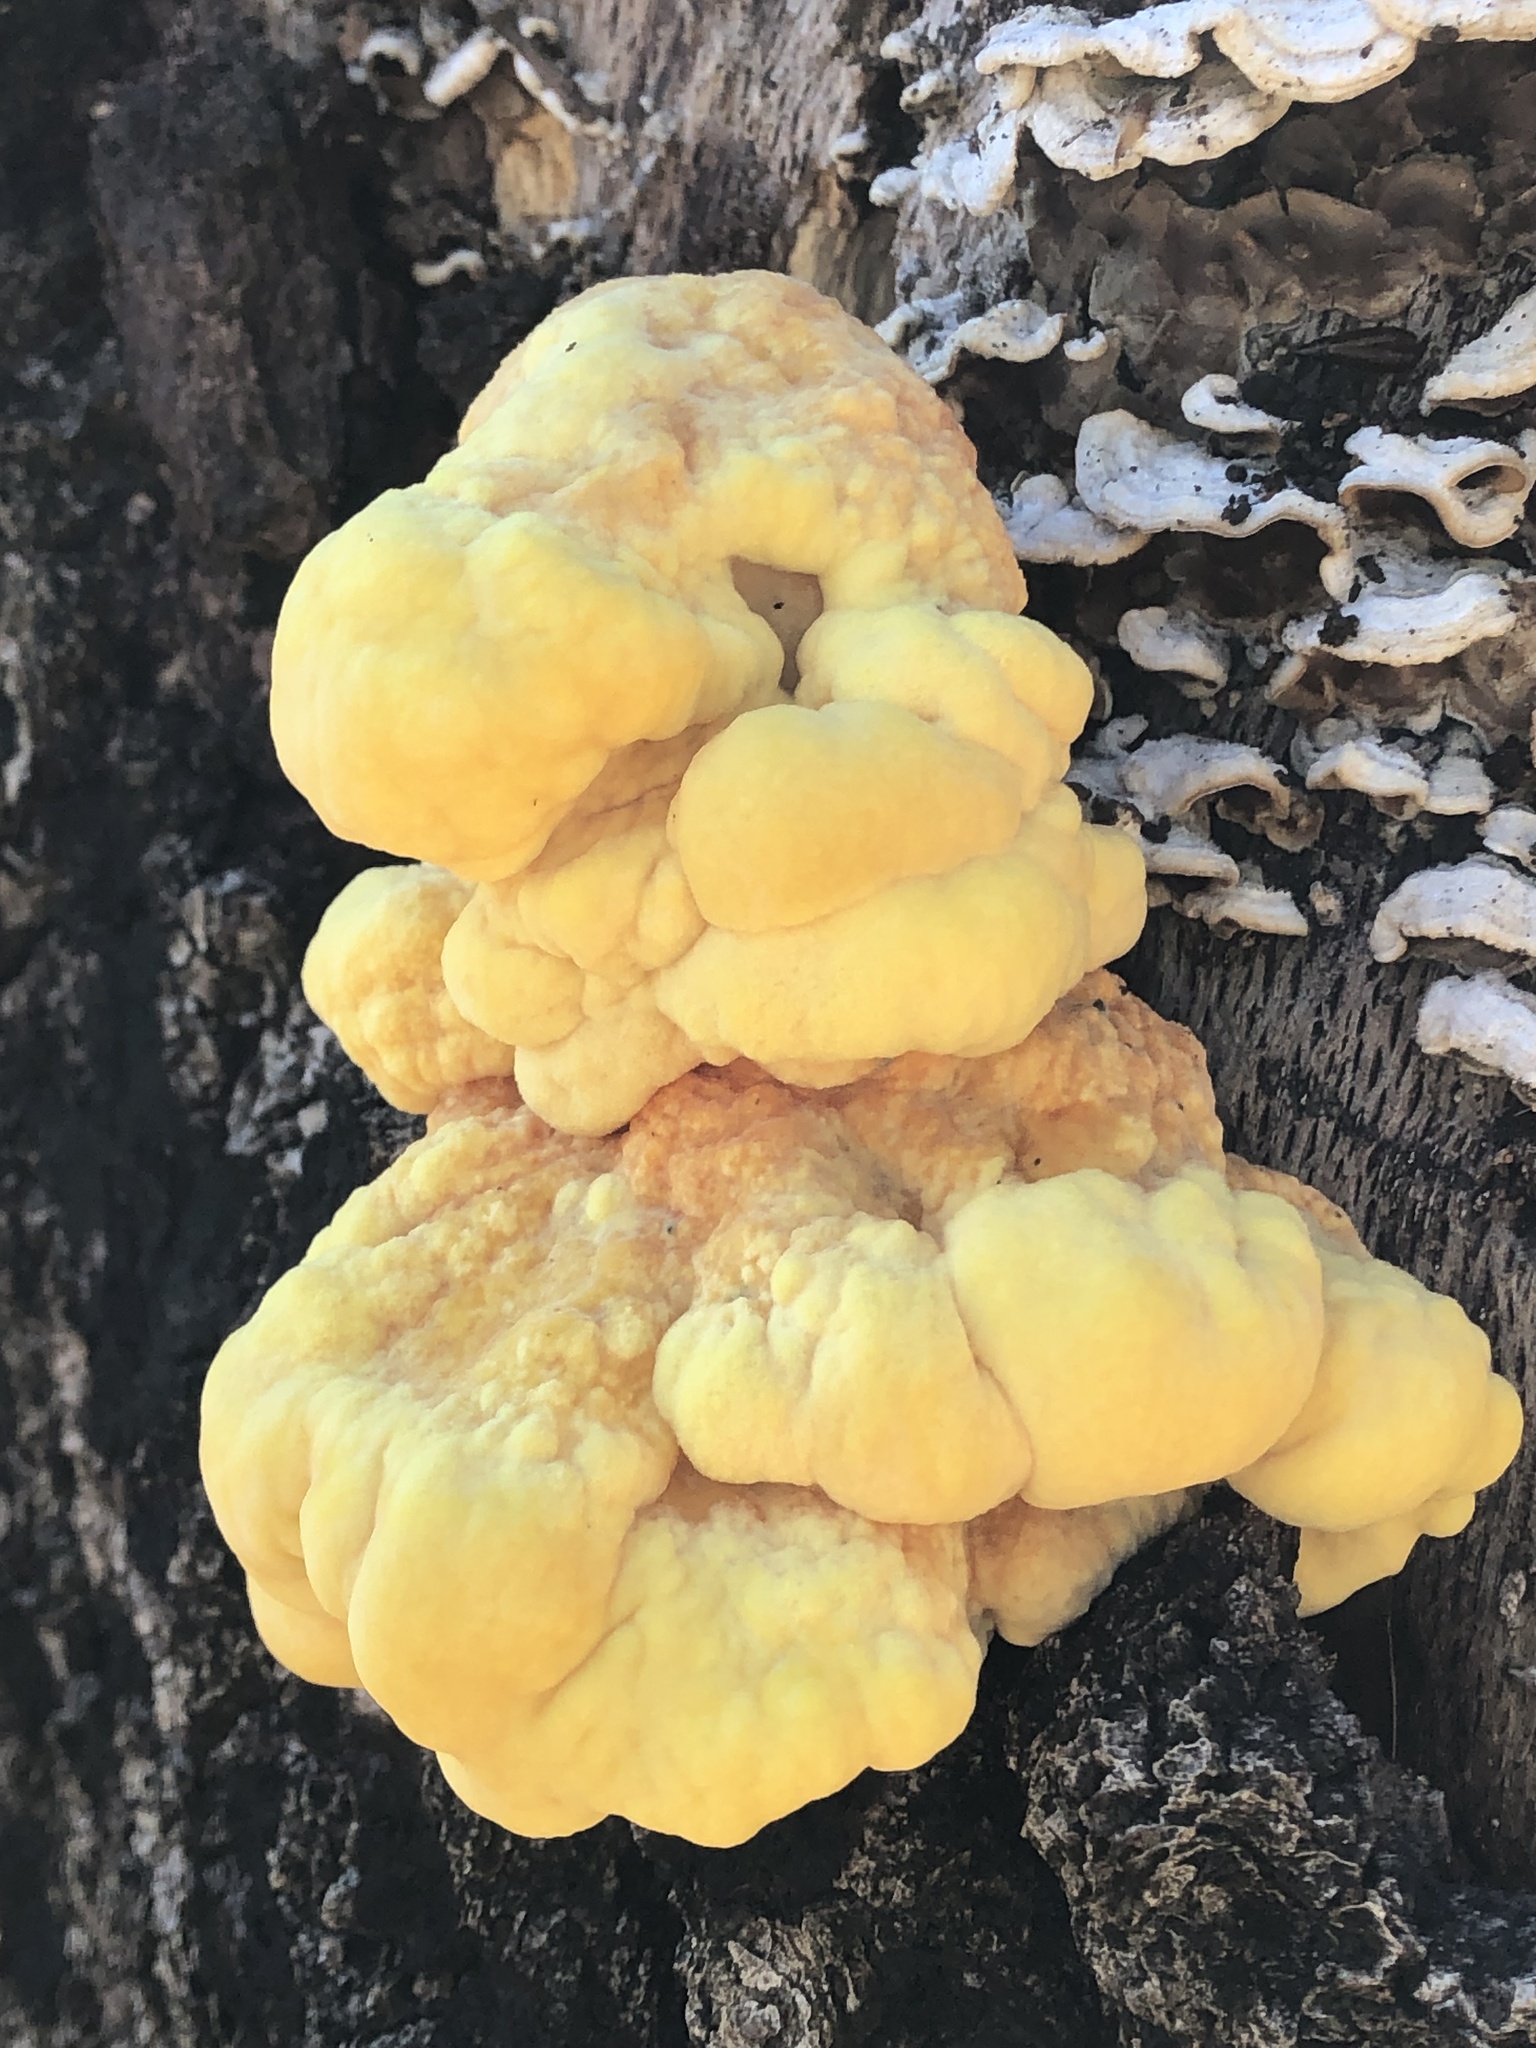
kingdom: Fungi
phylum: Basidiomycota
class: Agaricomycetes
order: Polyporales
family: Laetiporaceae
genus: Laetiporus
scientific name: Laetiporus gilbertsonii
